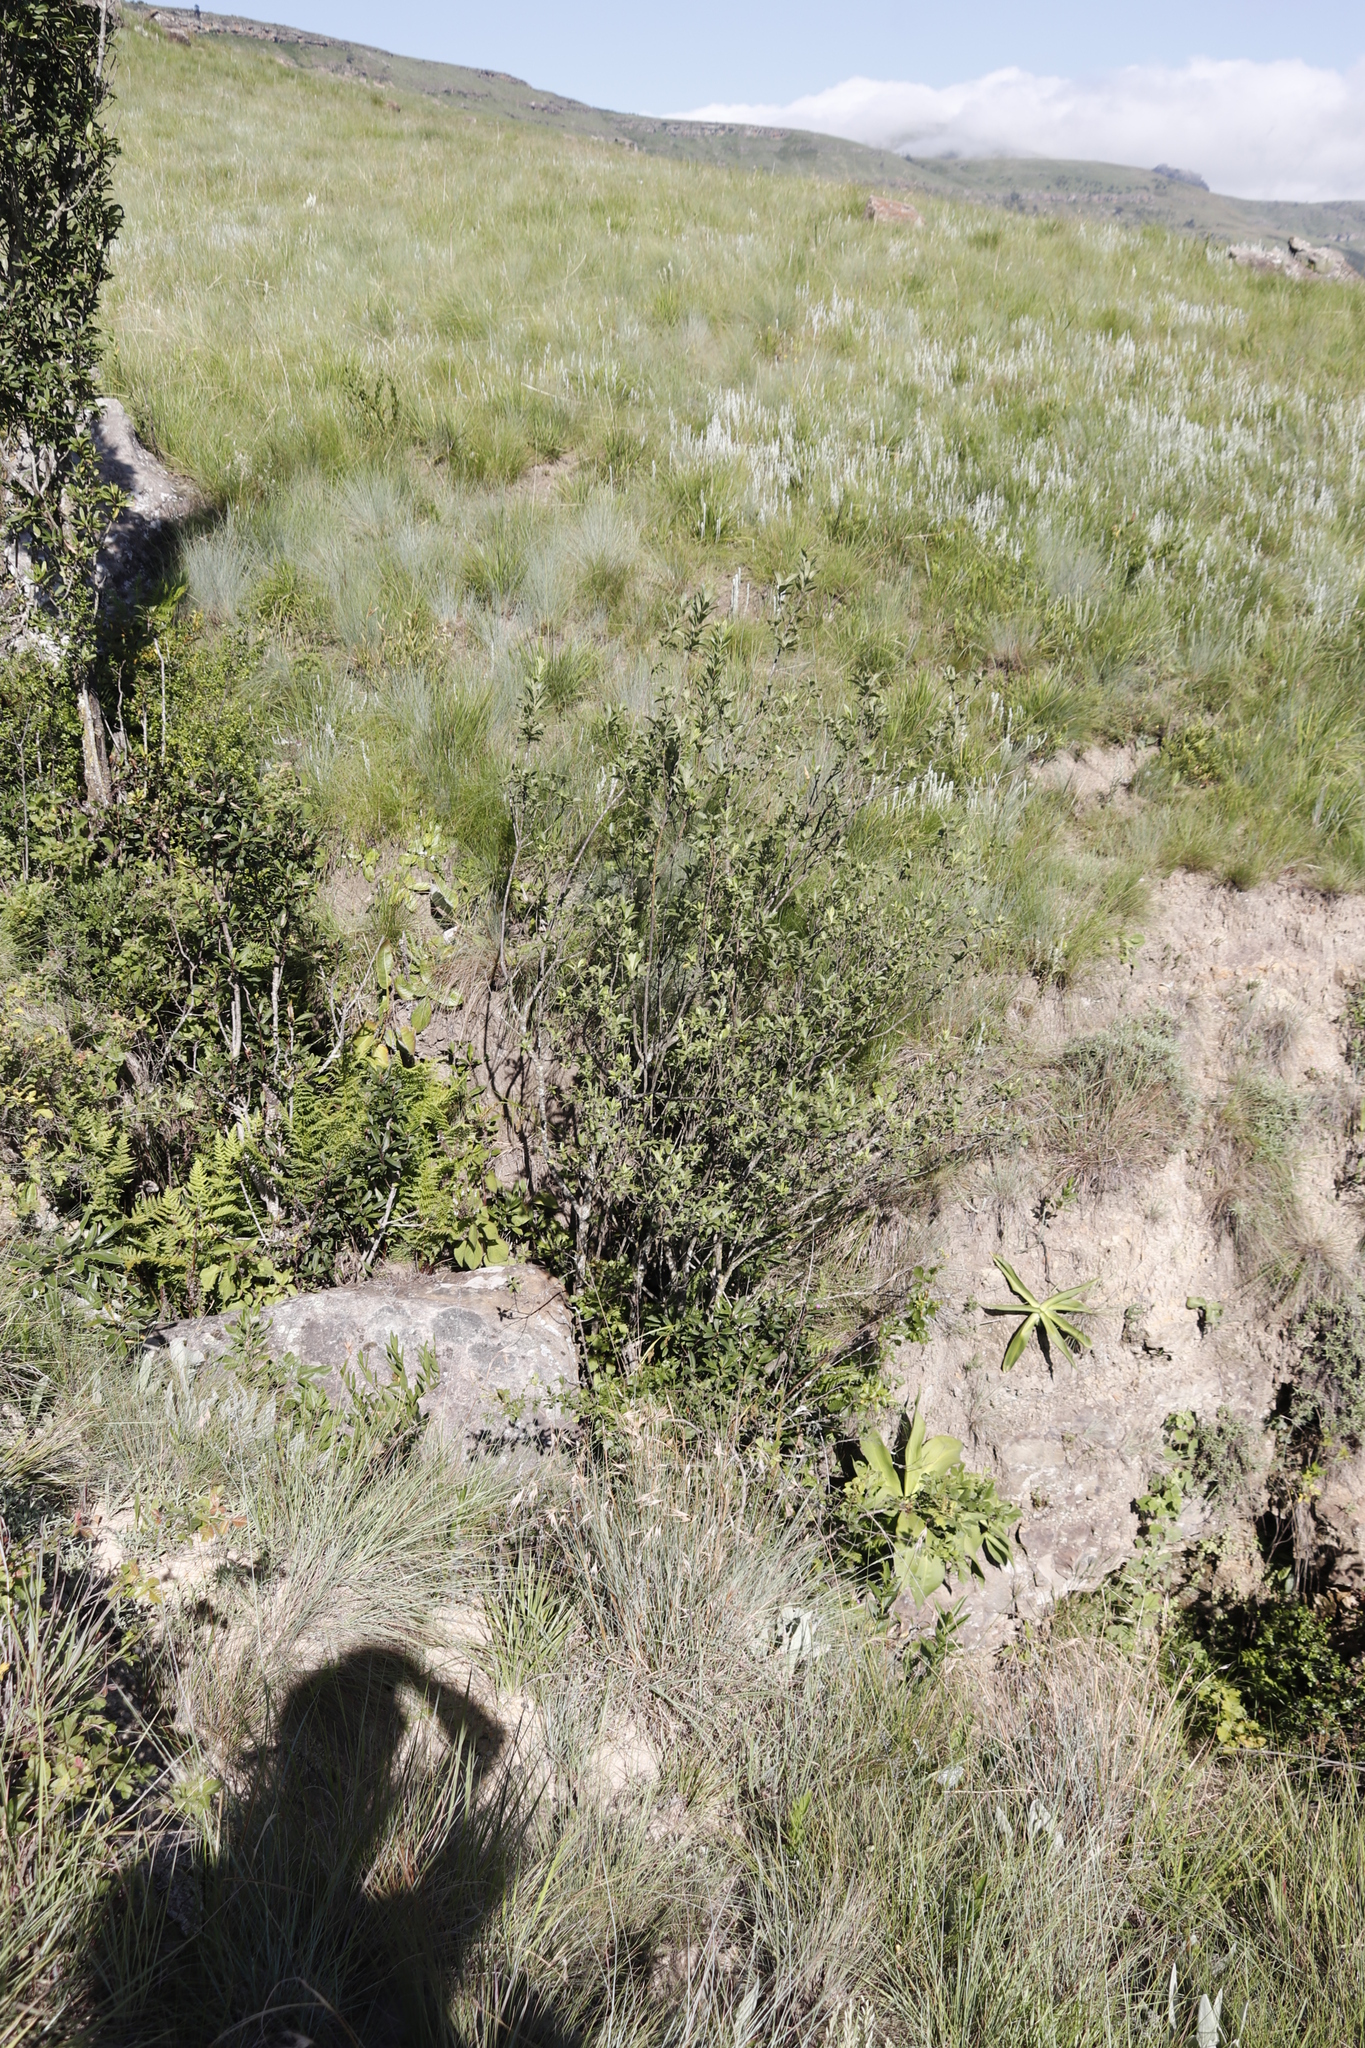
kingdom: Plantae
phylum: Tracheophyta
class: Magnoliopsida
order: Malpighiales
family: Achariaceae
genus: Kiggelaria
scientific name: Kiggelaria africana
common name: Wild peach
